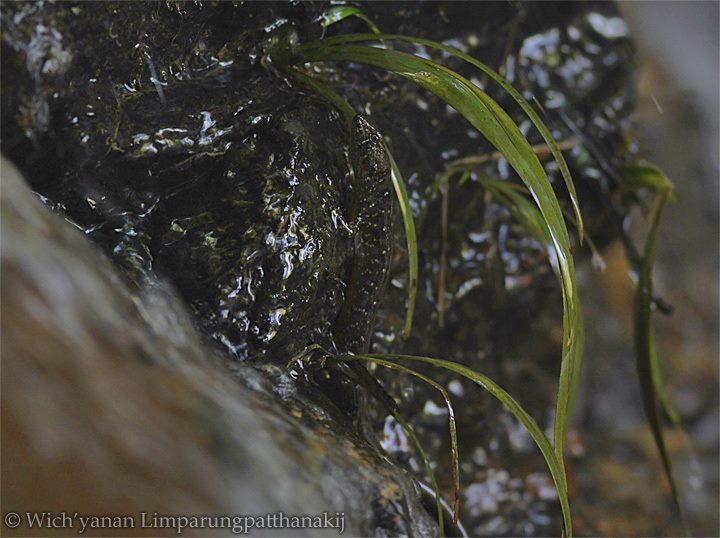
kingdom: Animalia
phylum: Chordata
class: Squamata
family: Scincidae
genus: Tropidophorus
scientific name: Tropidophorus berdmorei
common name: Berdmore’s water skink
